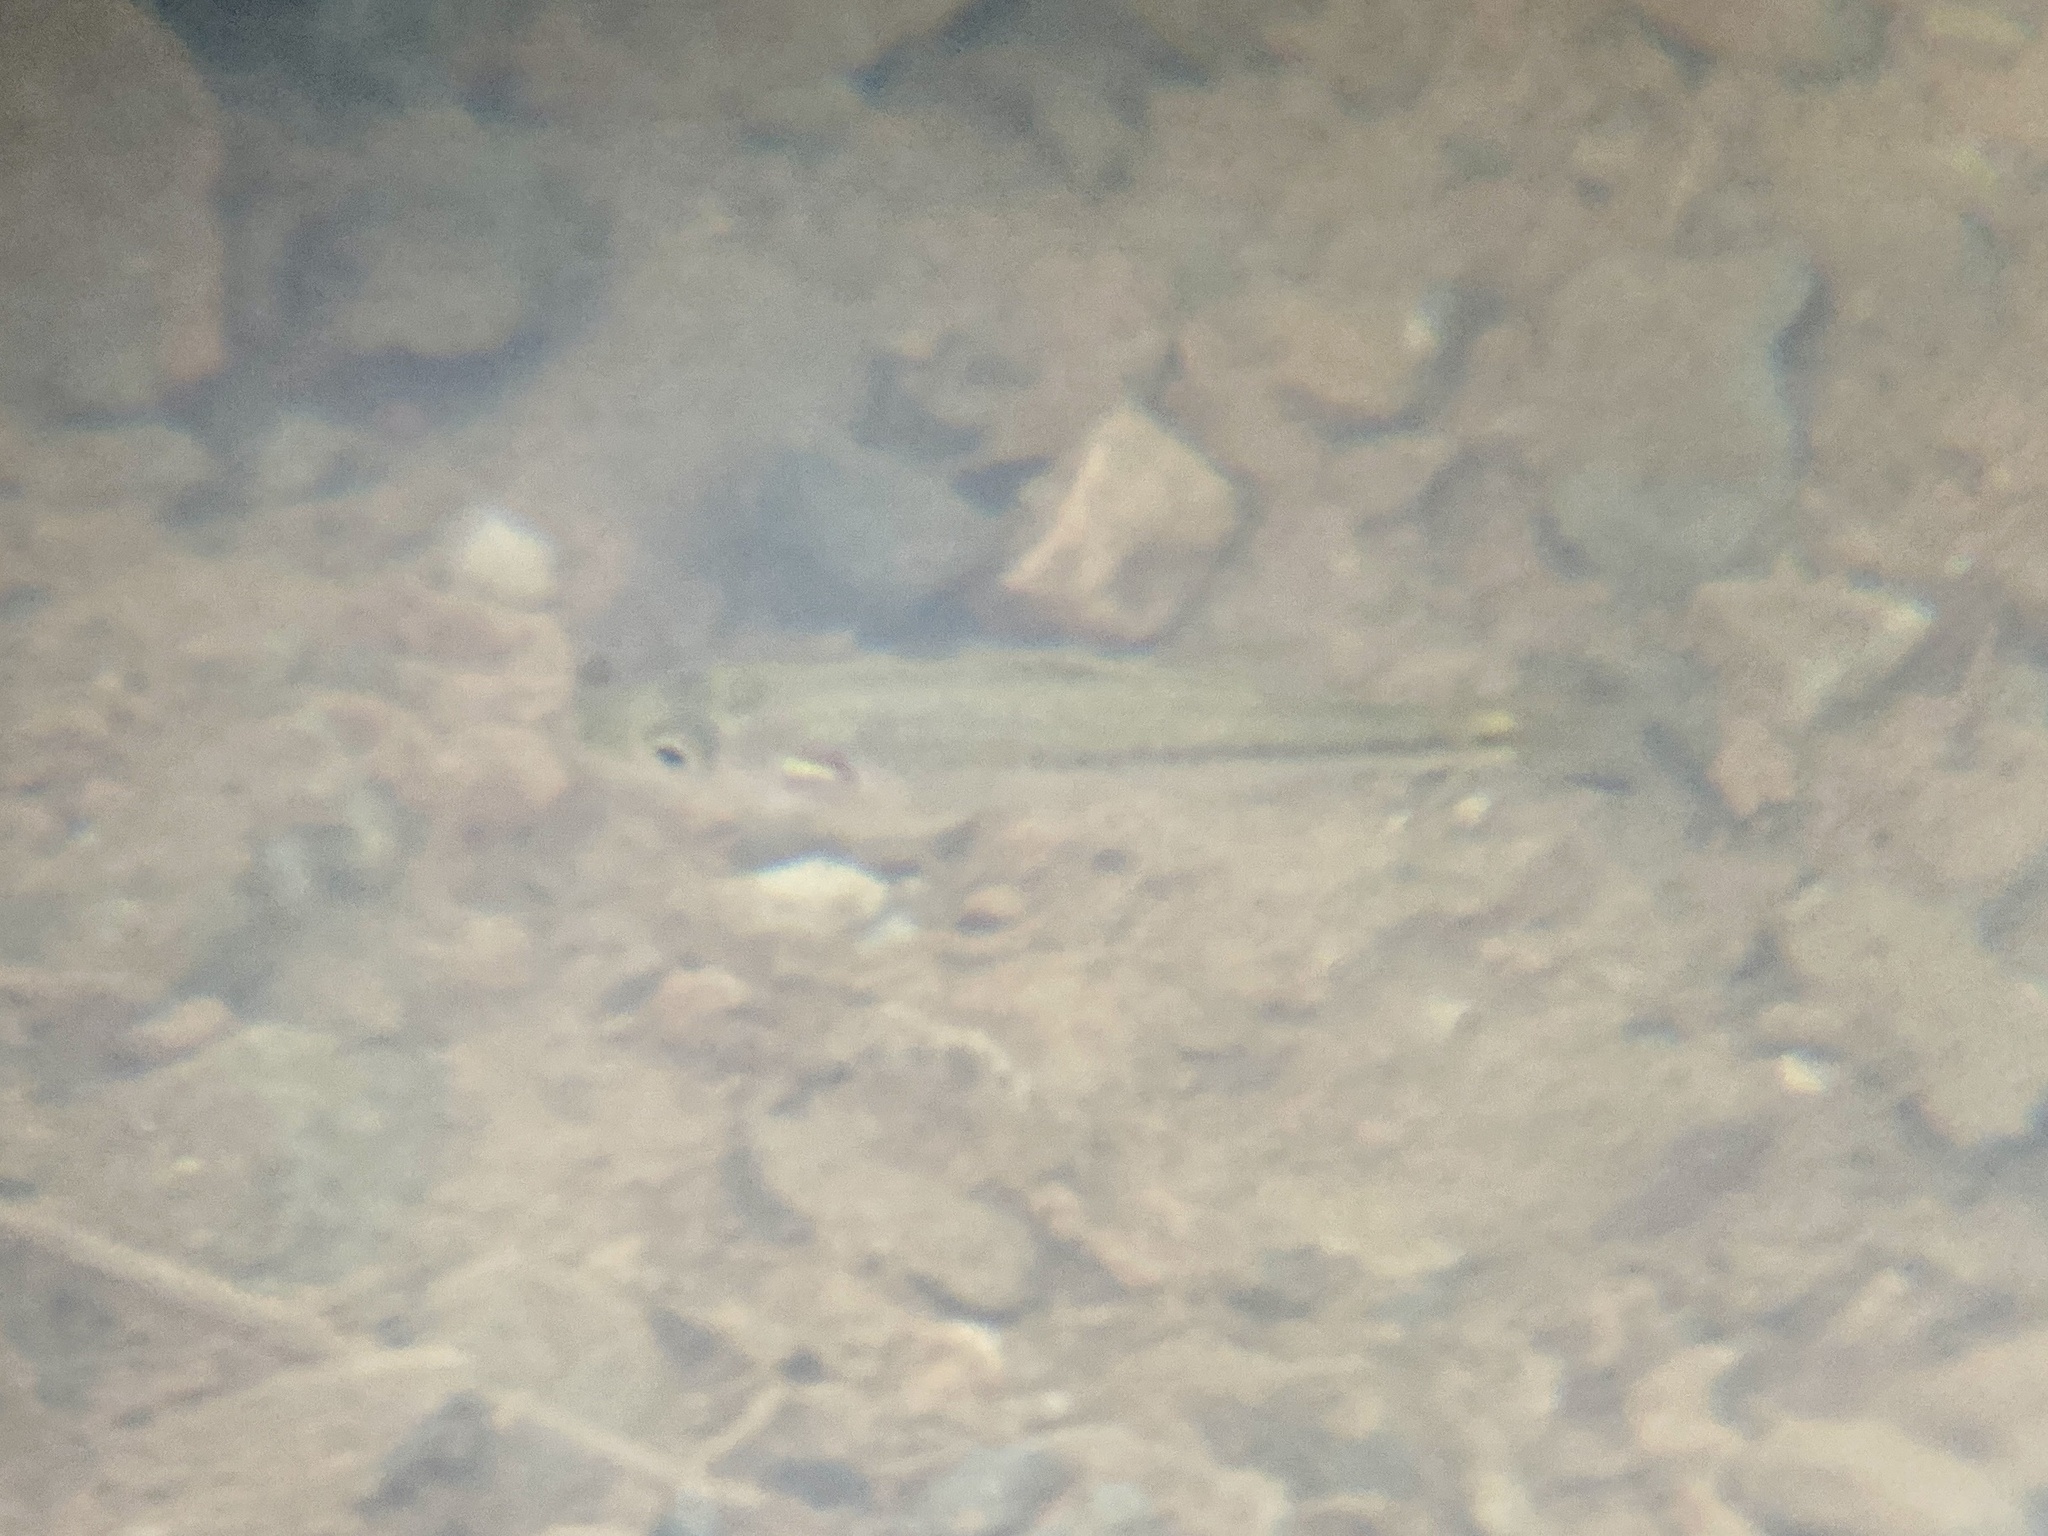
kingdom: Animalia
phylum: Chordata
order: Perciformes
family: Centrarchidae
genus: Micropterus
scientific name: Micropterus
